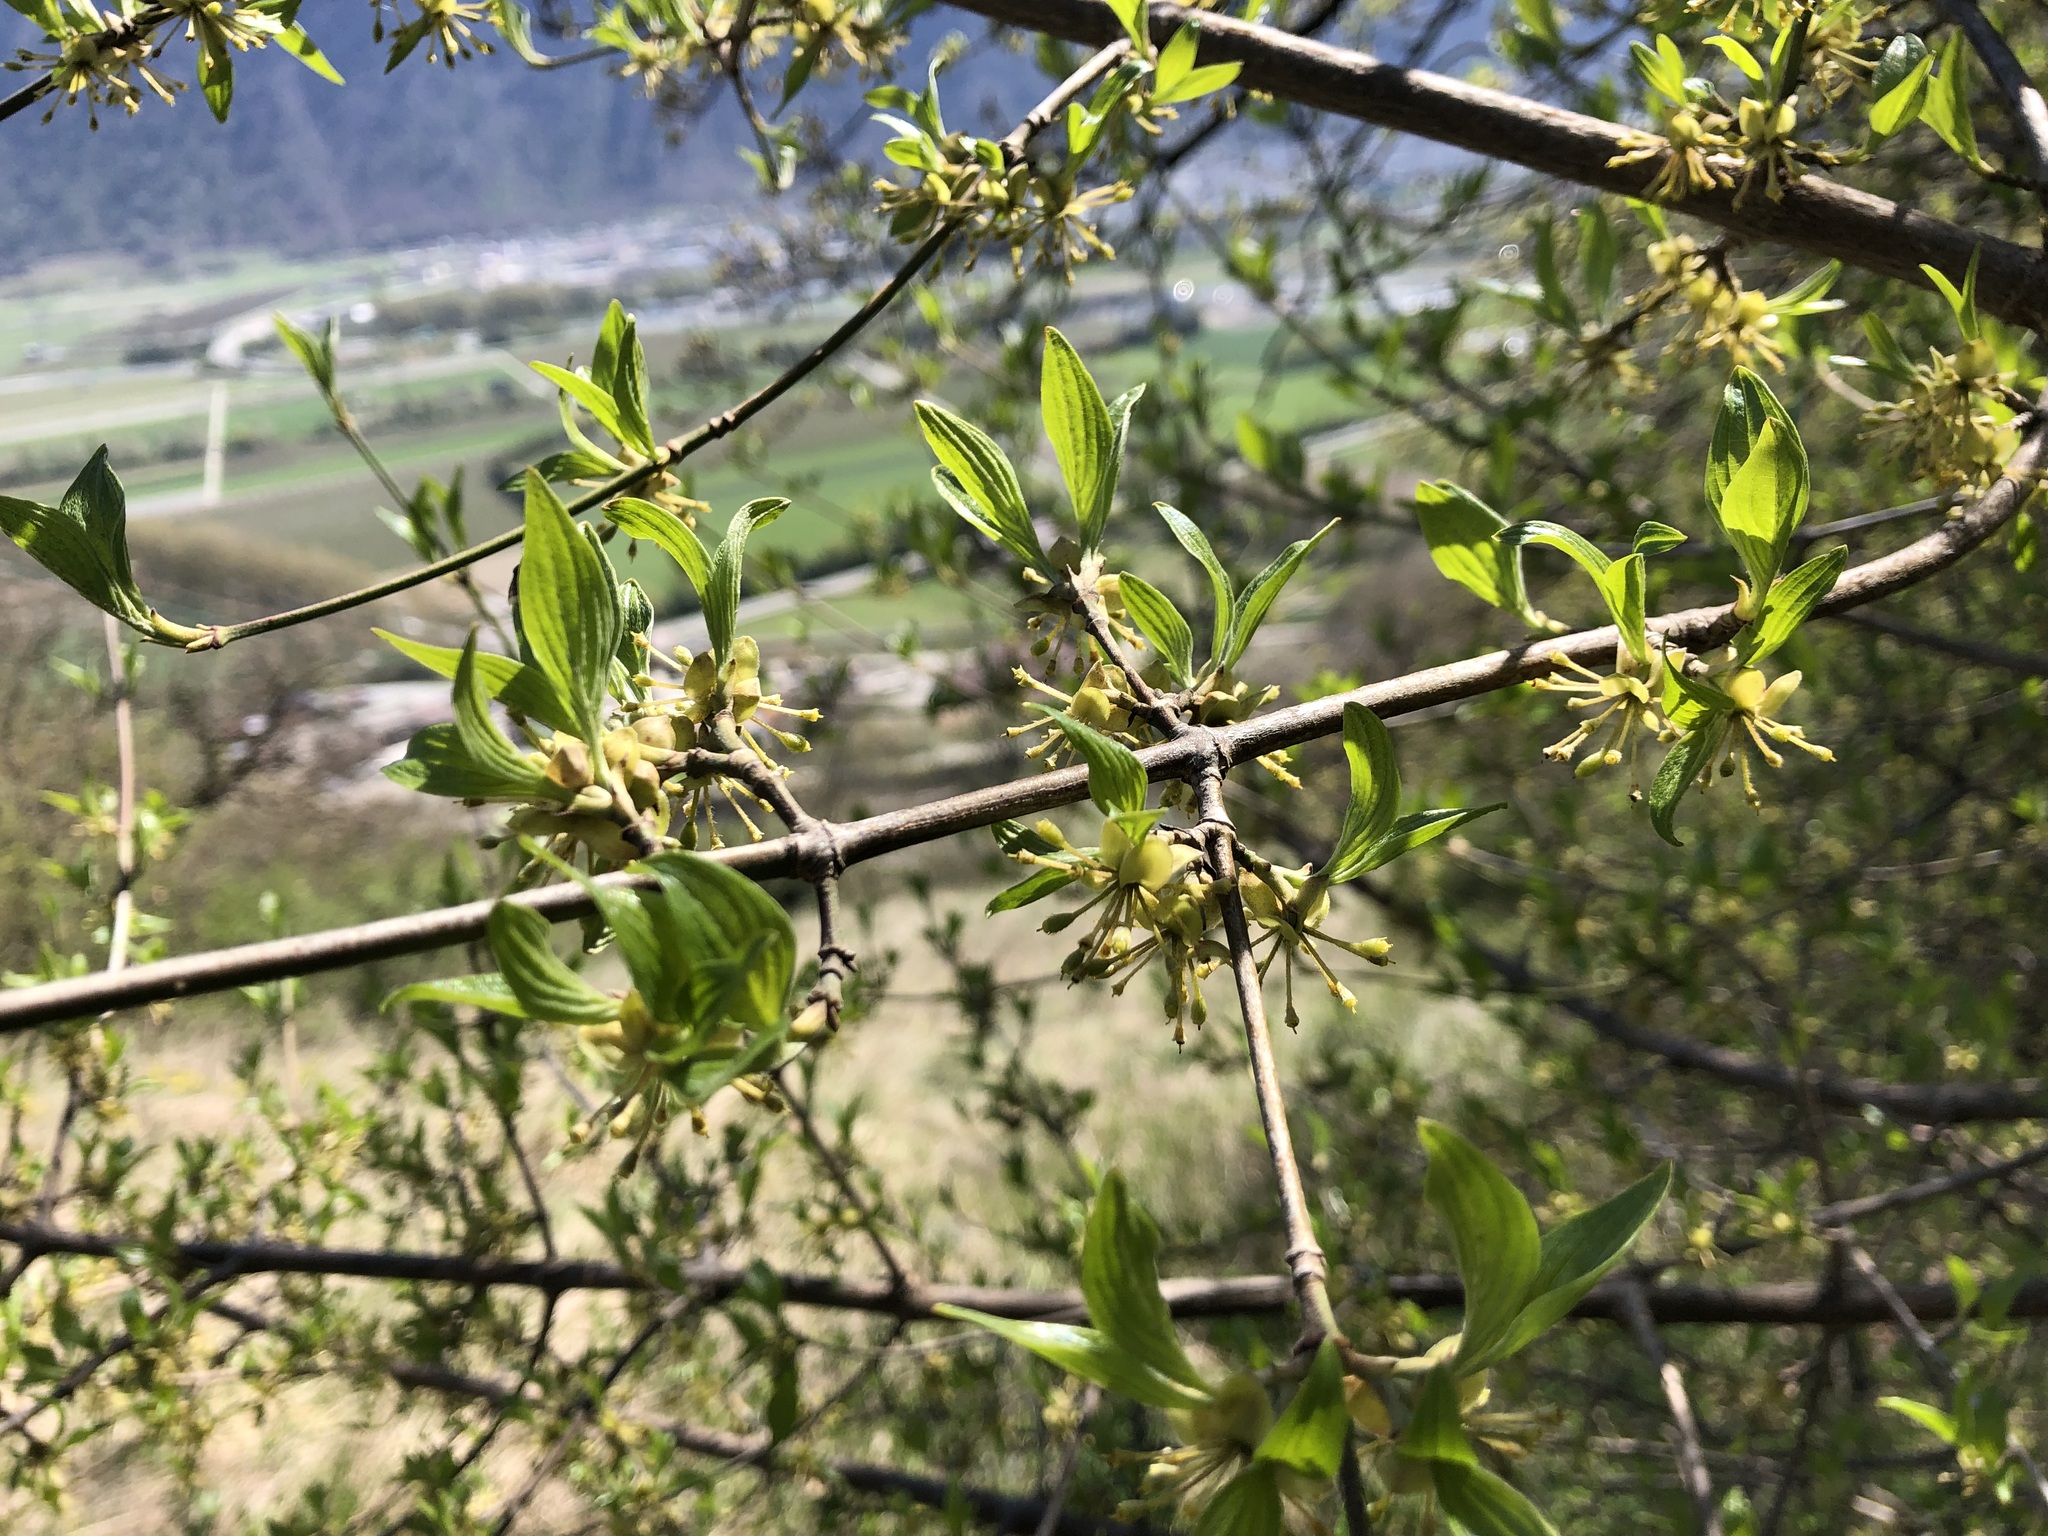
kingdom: Plantae
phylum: Tracheophyta
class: Magnoliopsida
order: Cornales
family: Cornaceae
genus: Cornus
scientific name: Cornus mas
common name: Cornelian-cherry
